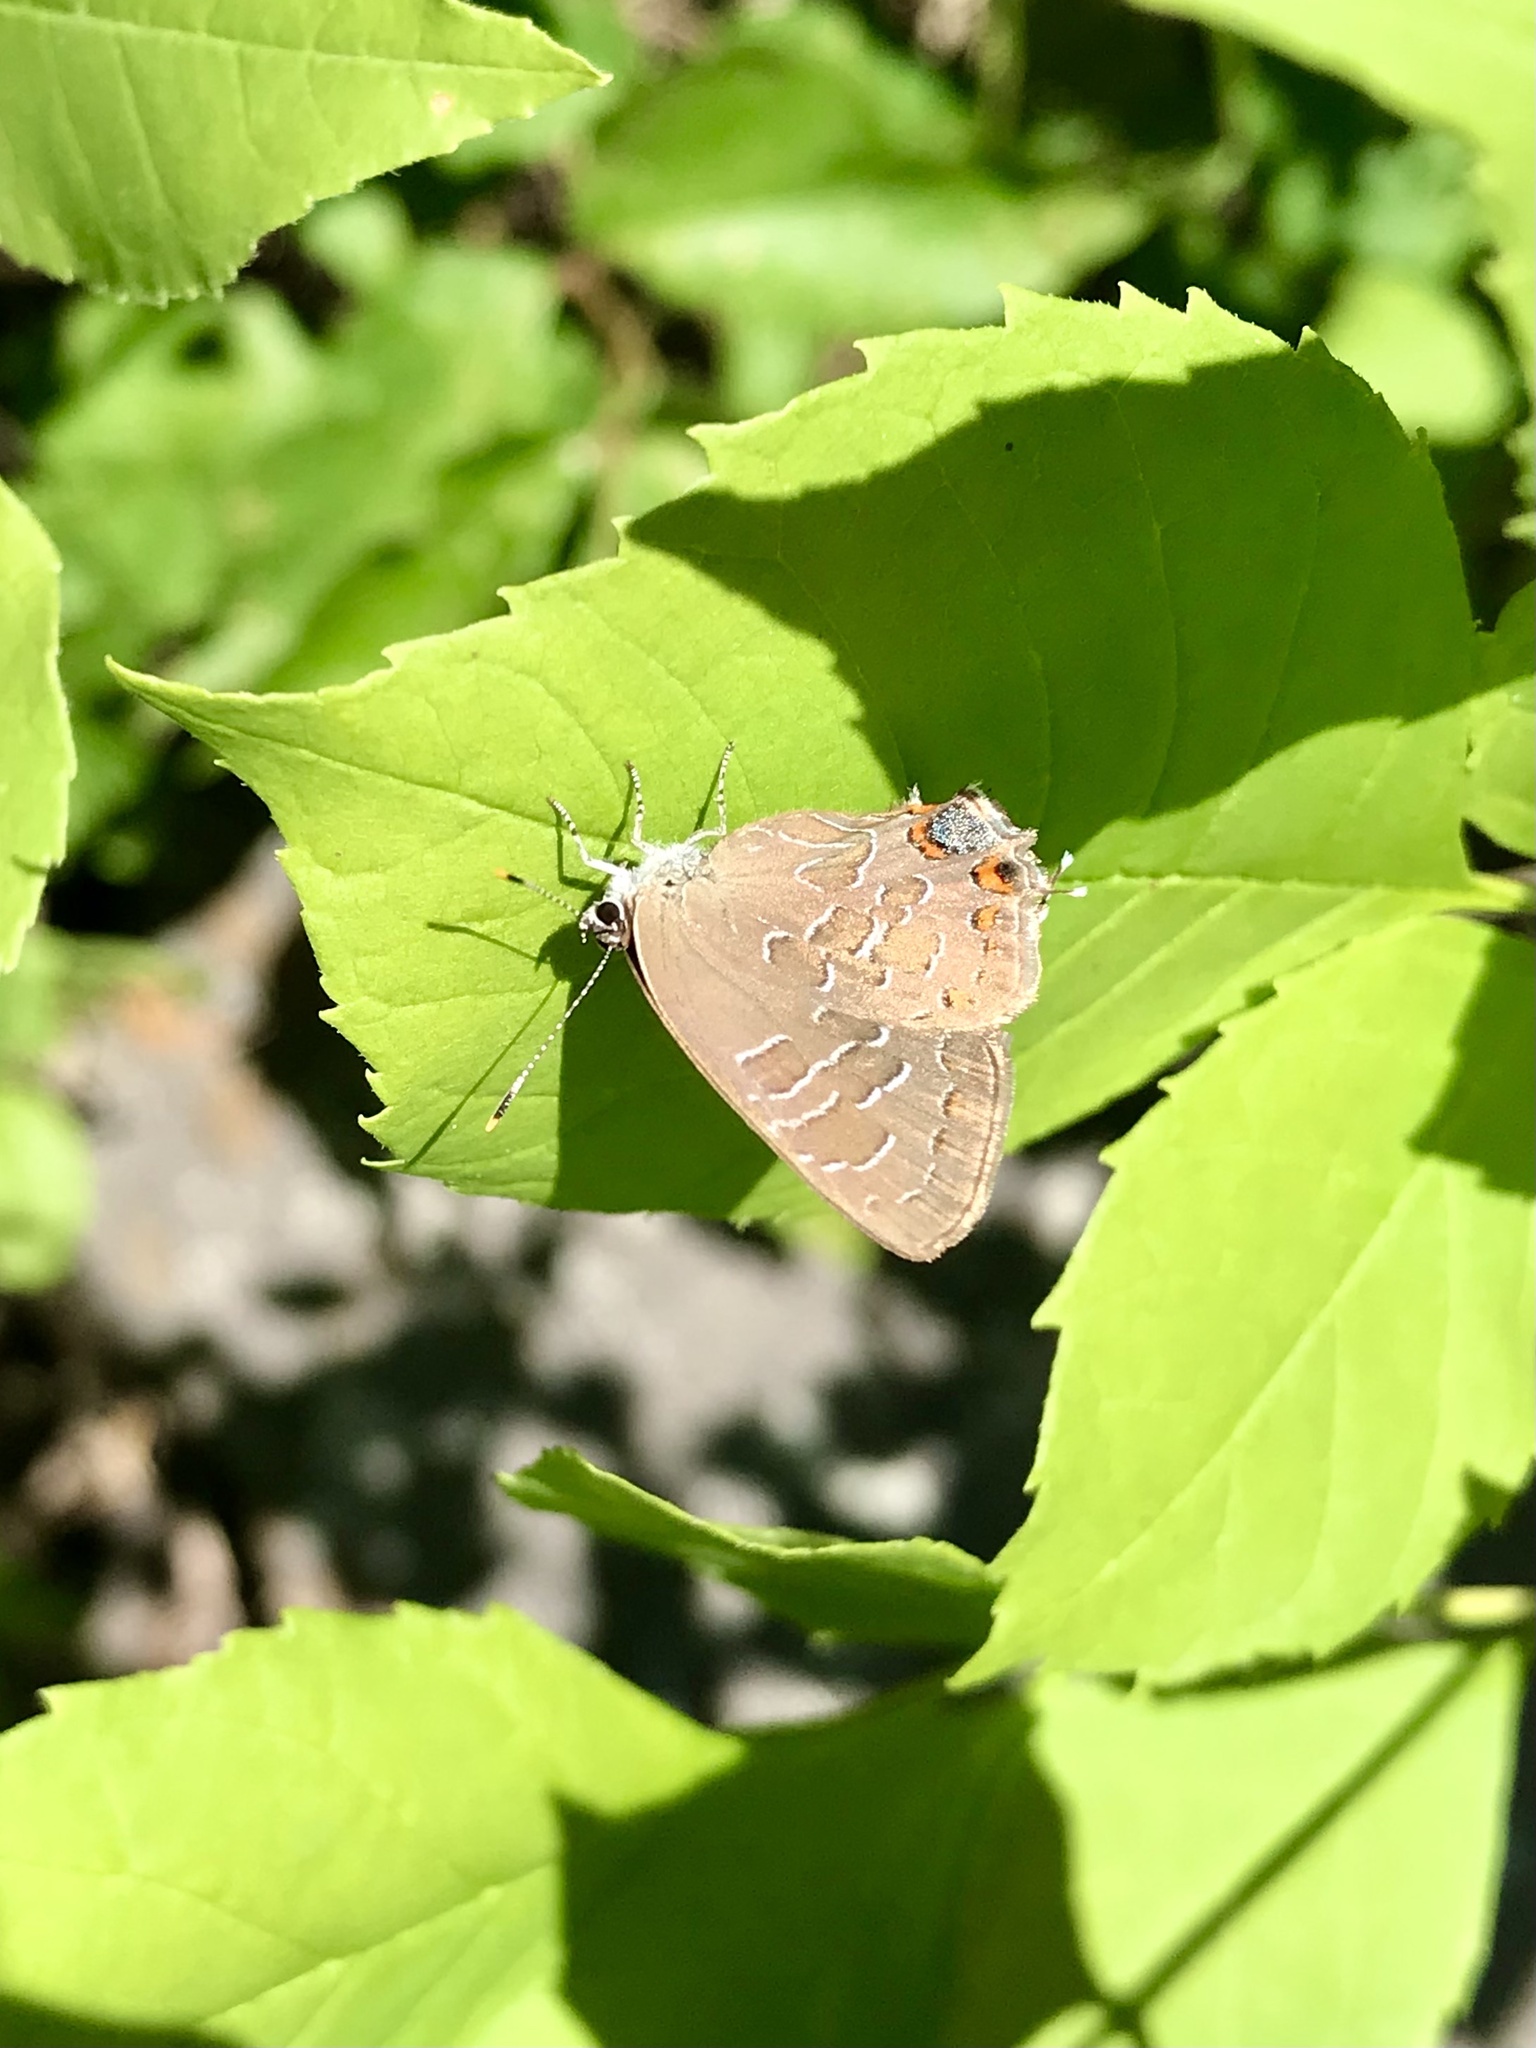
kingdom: Animalia
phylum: Arthropoda
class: Insecta
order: Lepidoptera
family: Lycaenidae
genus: Satyrium
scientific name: Satyrium liparops
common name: Striped hairstreak
